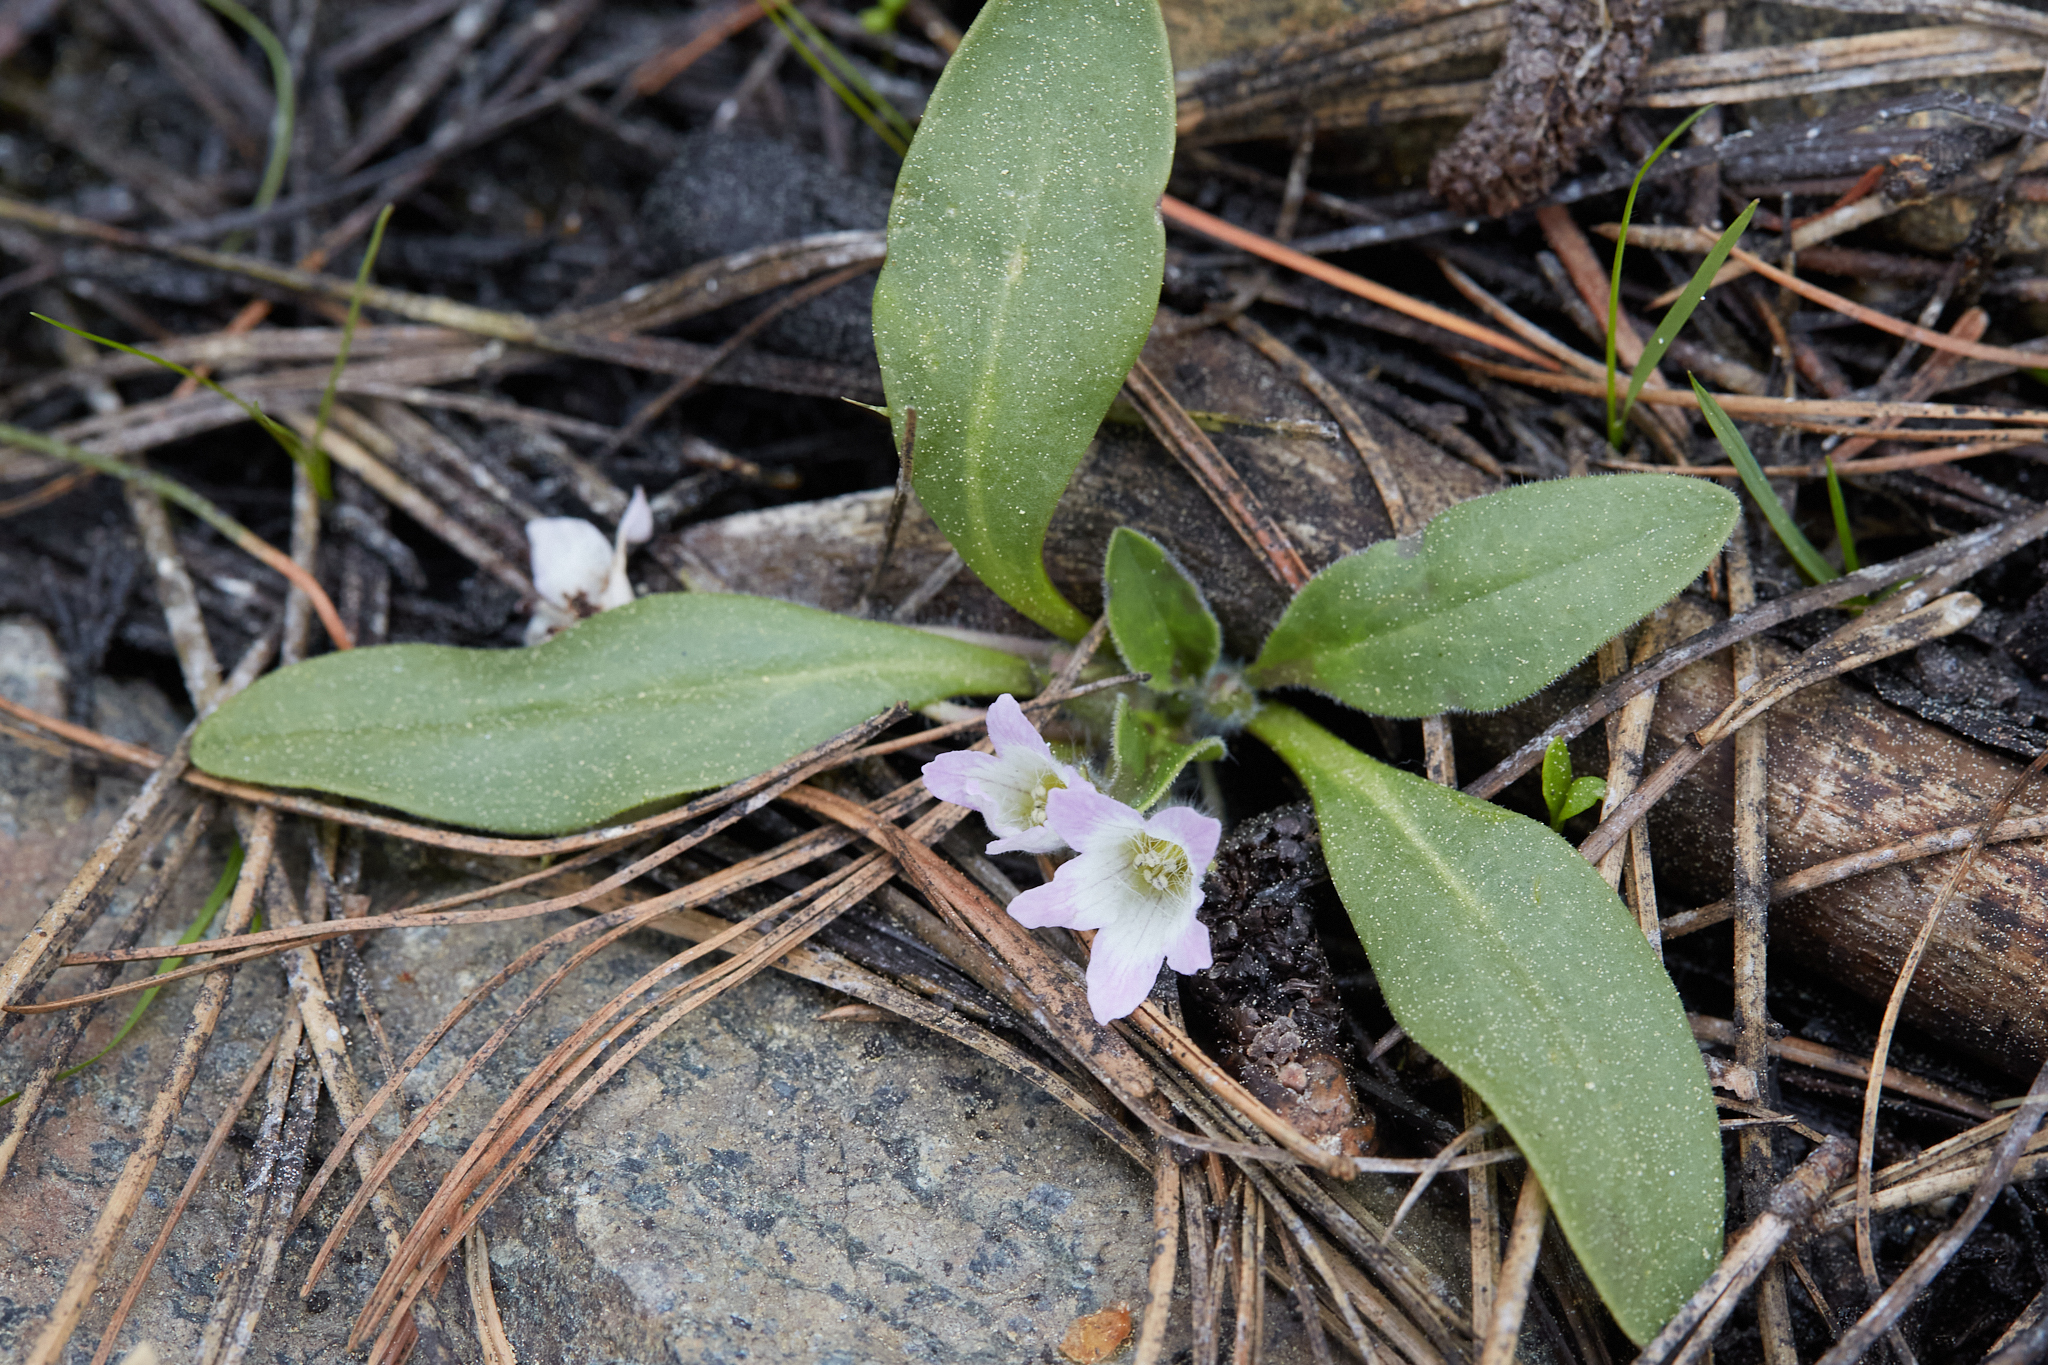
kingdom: Plantae
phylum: Tracheophyta
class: Magnoliopsida
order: Boraginales
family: Hydrophyllaceae
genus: Hesperochiron
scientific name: Hesperochiron californicus
